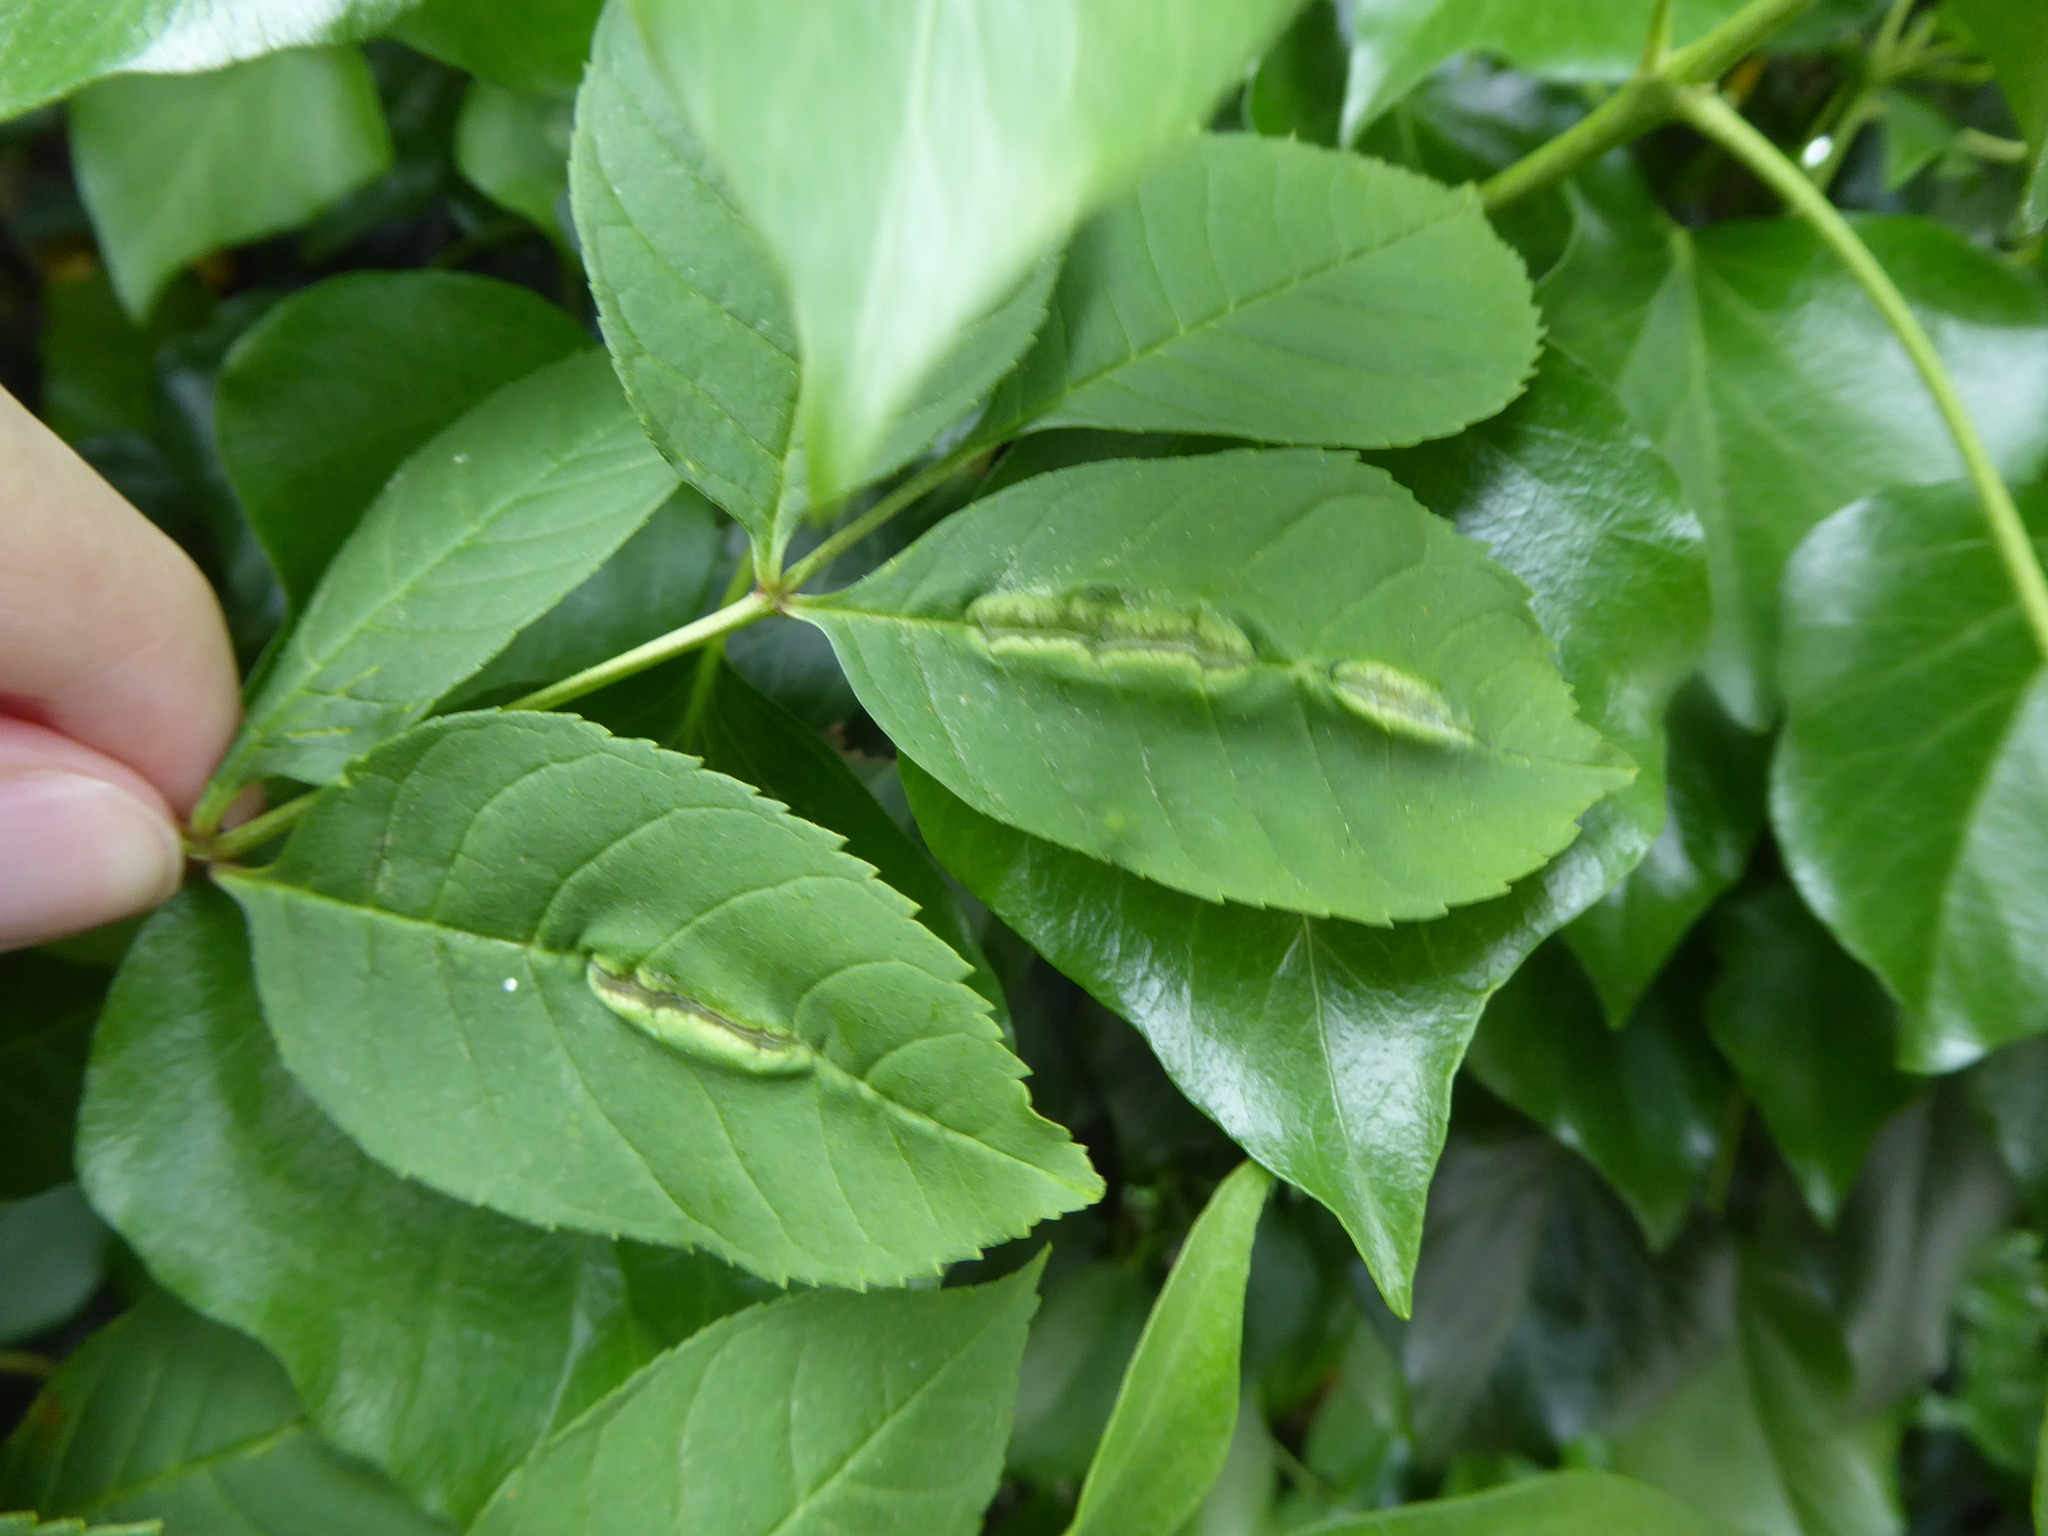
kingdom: Animalia
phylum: Arthropoda
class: Insecta
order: Diptera
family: Cecidomyiidae
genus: Dasineura
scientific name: Dasineura fraxini
